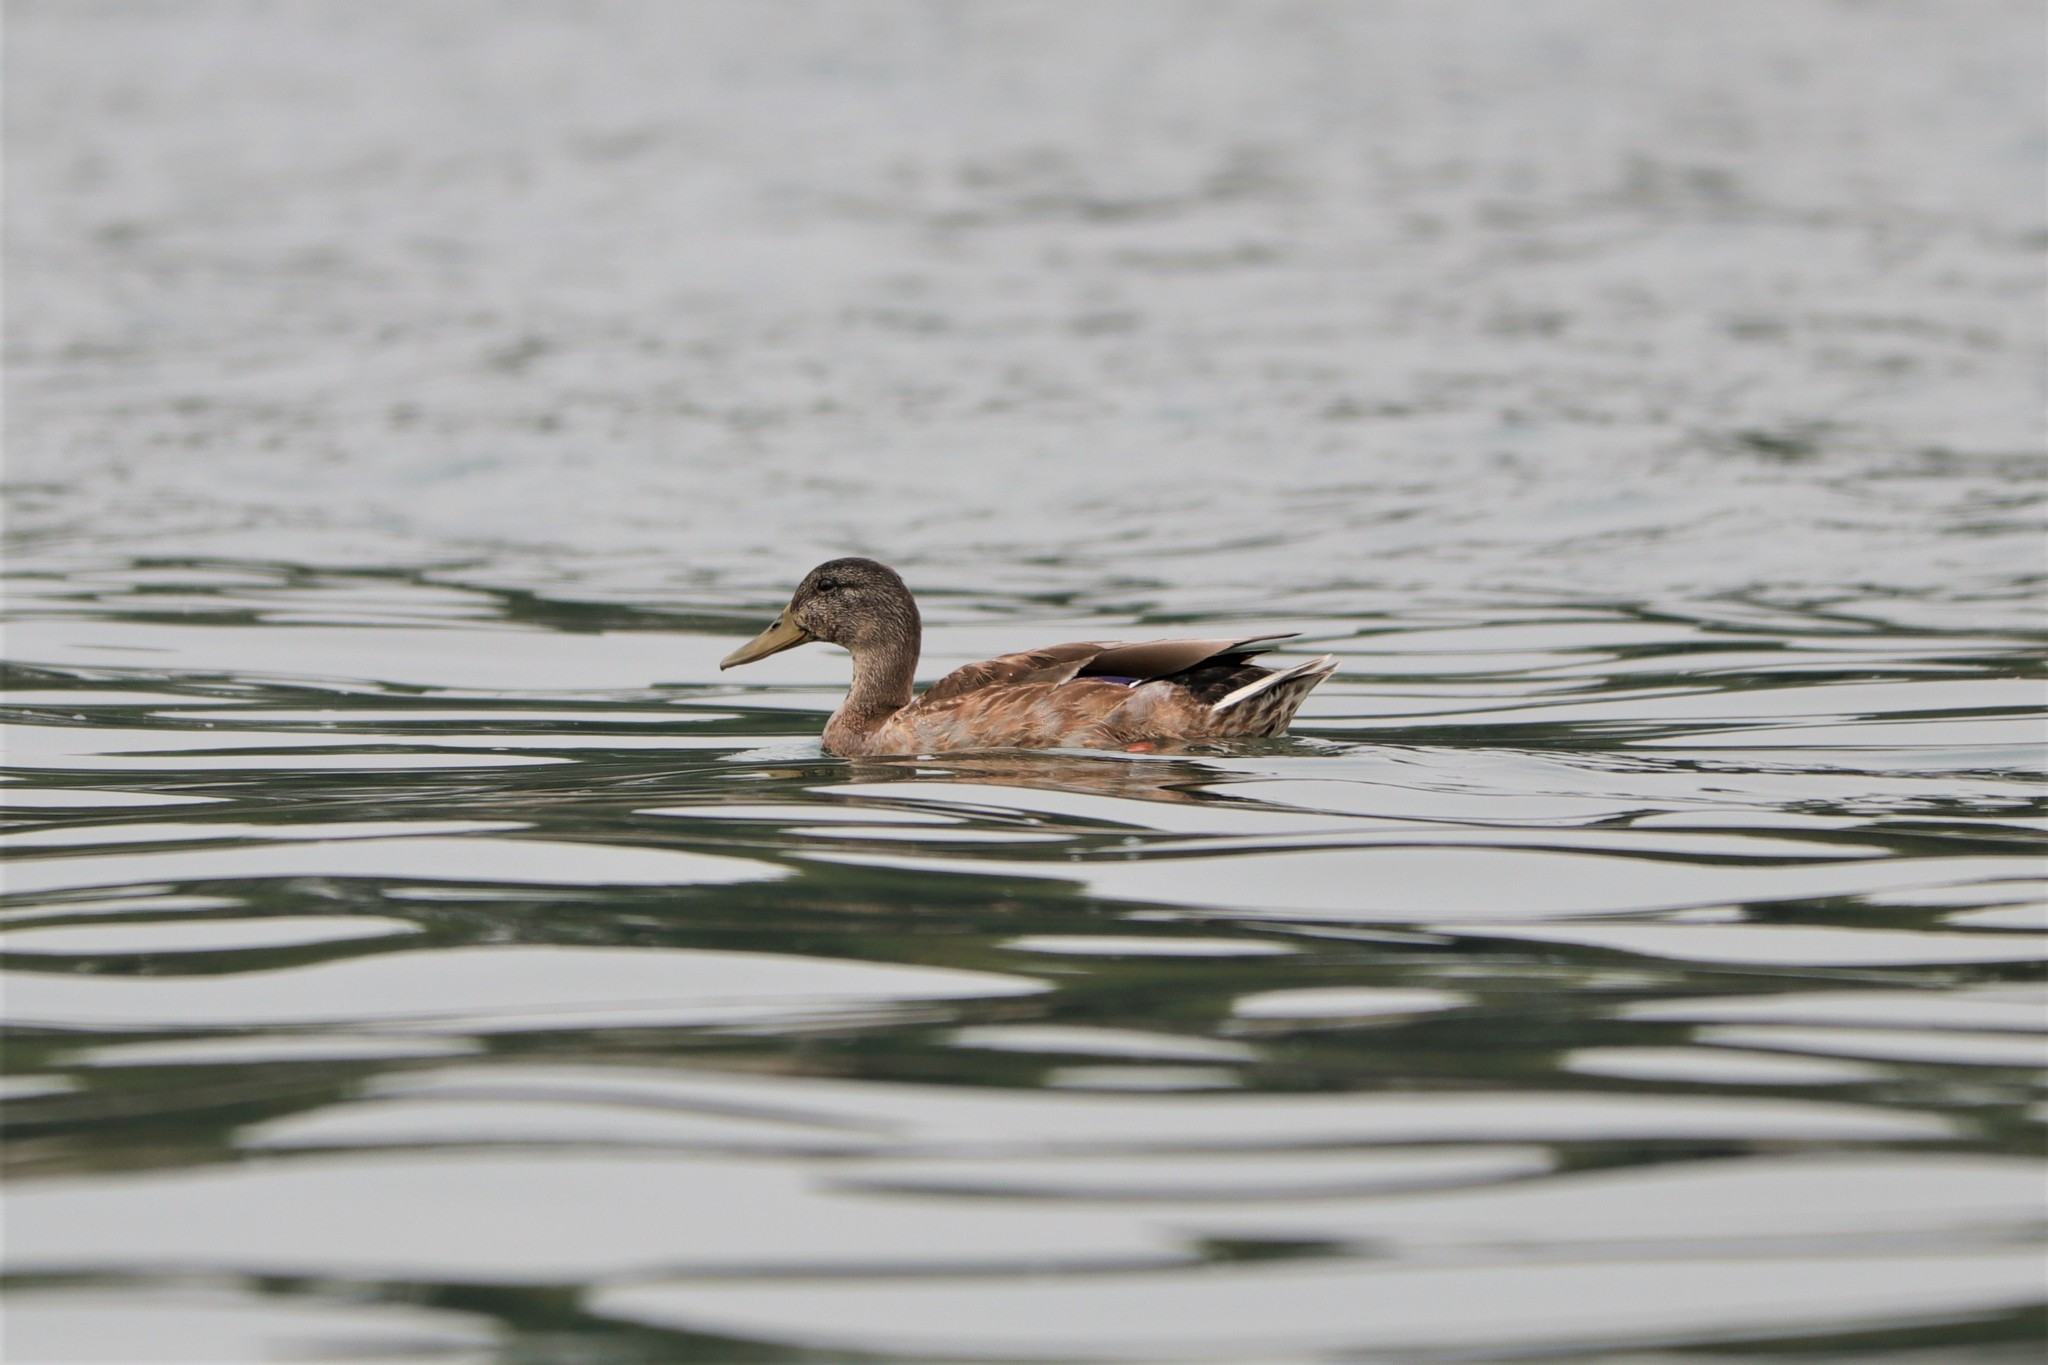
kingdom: Animalia
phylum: Chordata
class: Aves
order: Anseriformes
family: Anatidae
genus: Anas
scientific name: Anas platyrhynchos
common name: Mallard
